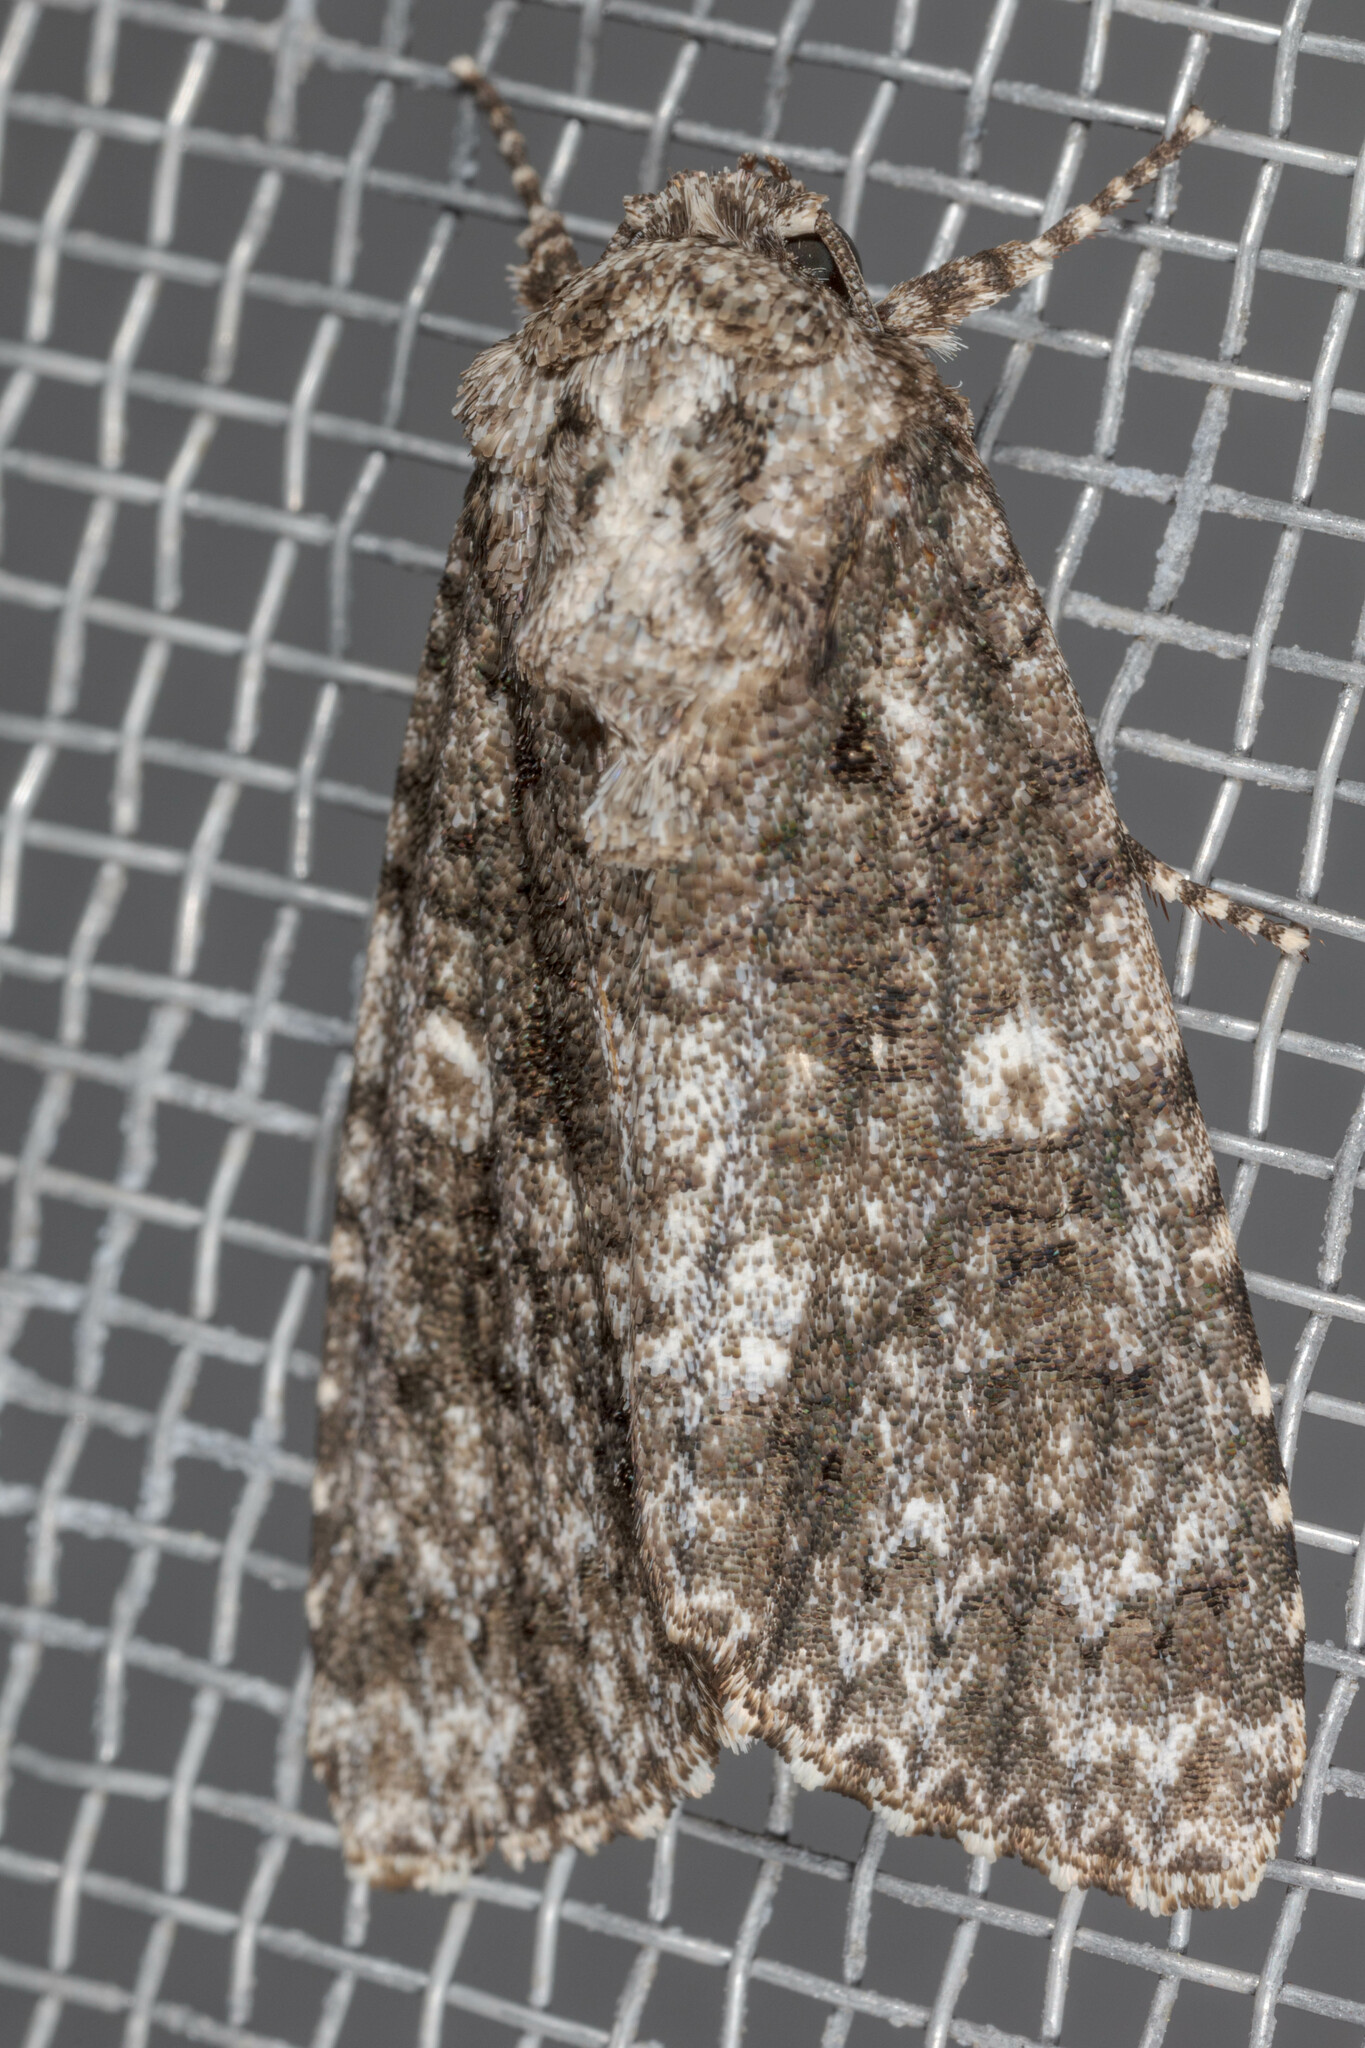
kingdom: Animalia
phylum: Arthropoda
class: Insecta
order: Lepidoptera
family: Noctuidae
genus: Acronicta
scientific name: Acronicta afflicta
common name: Afflicted dagger moth
